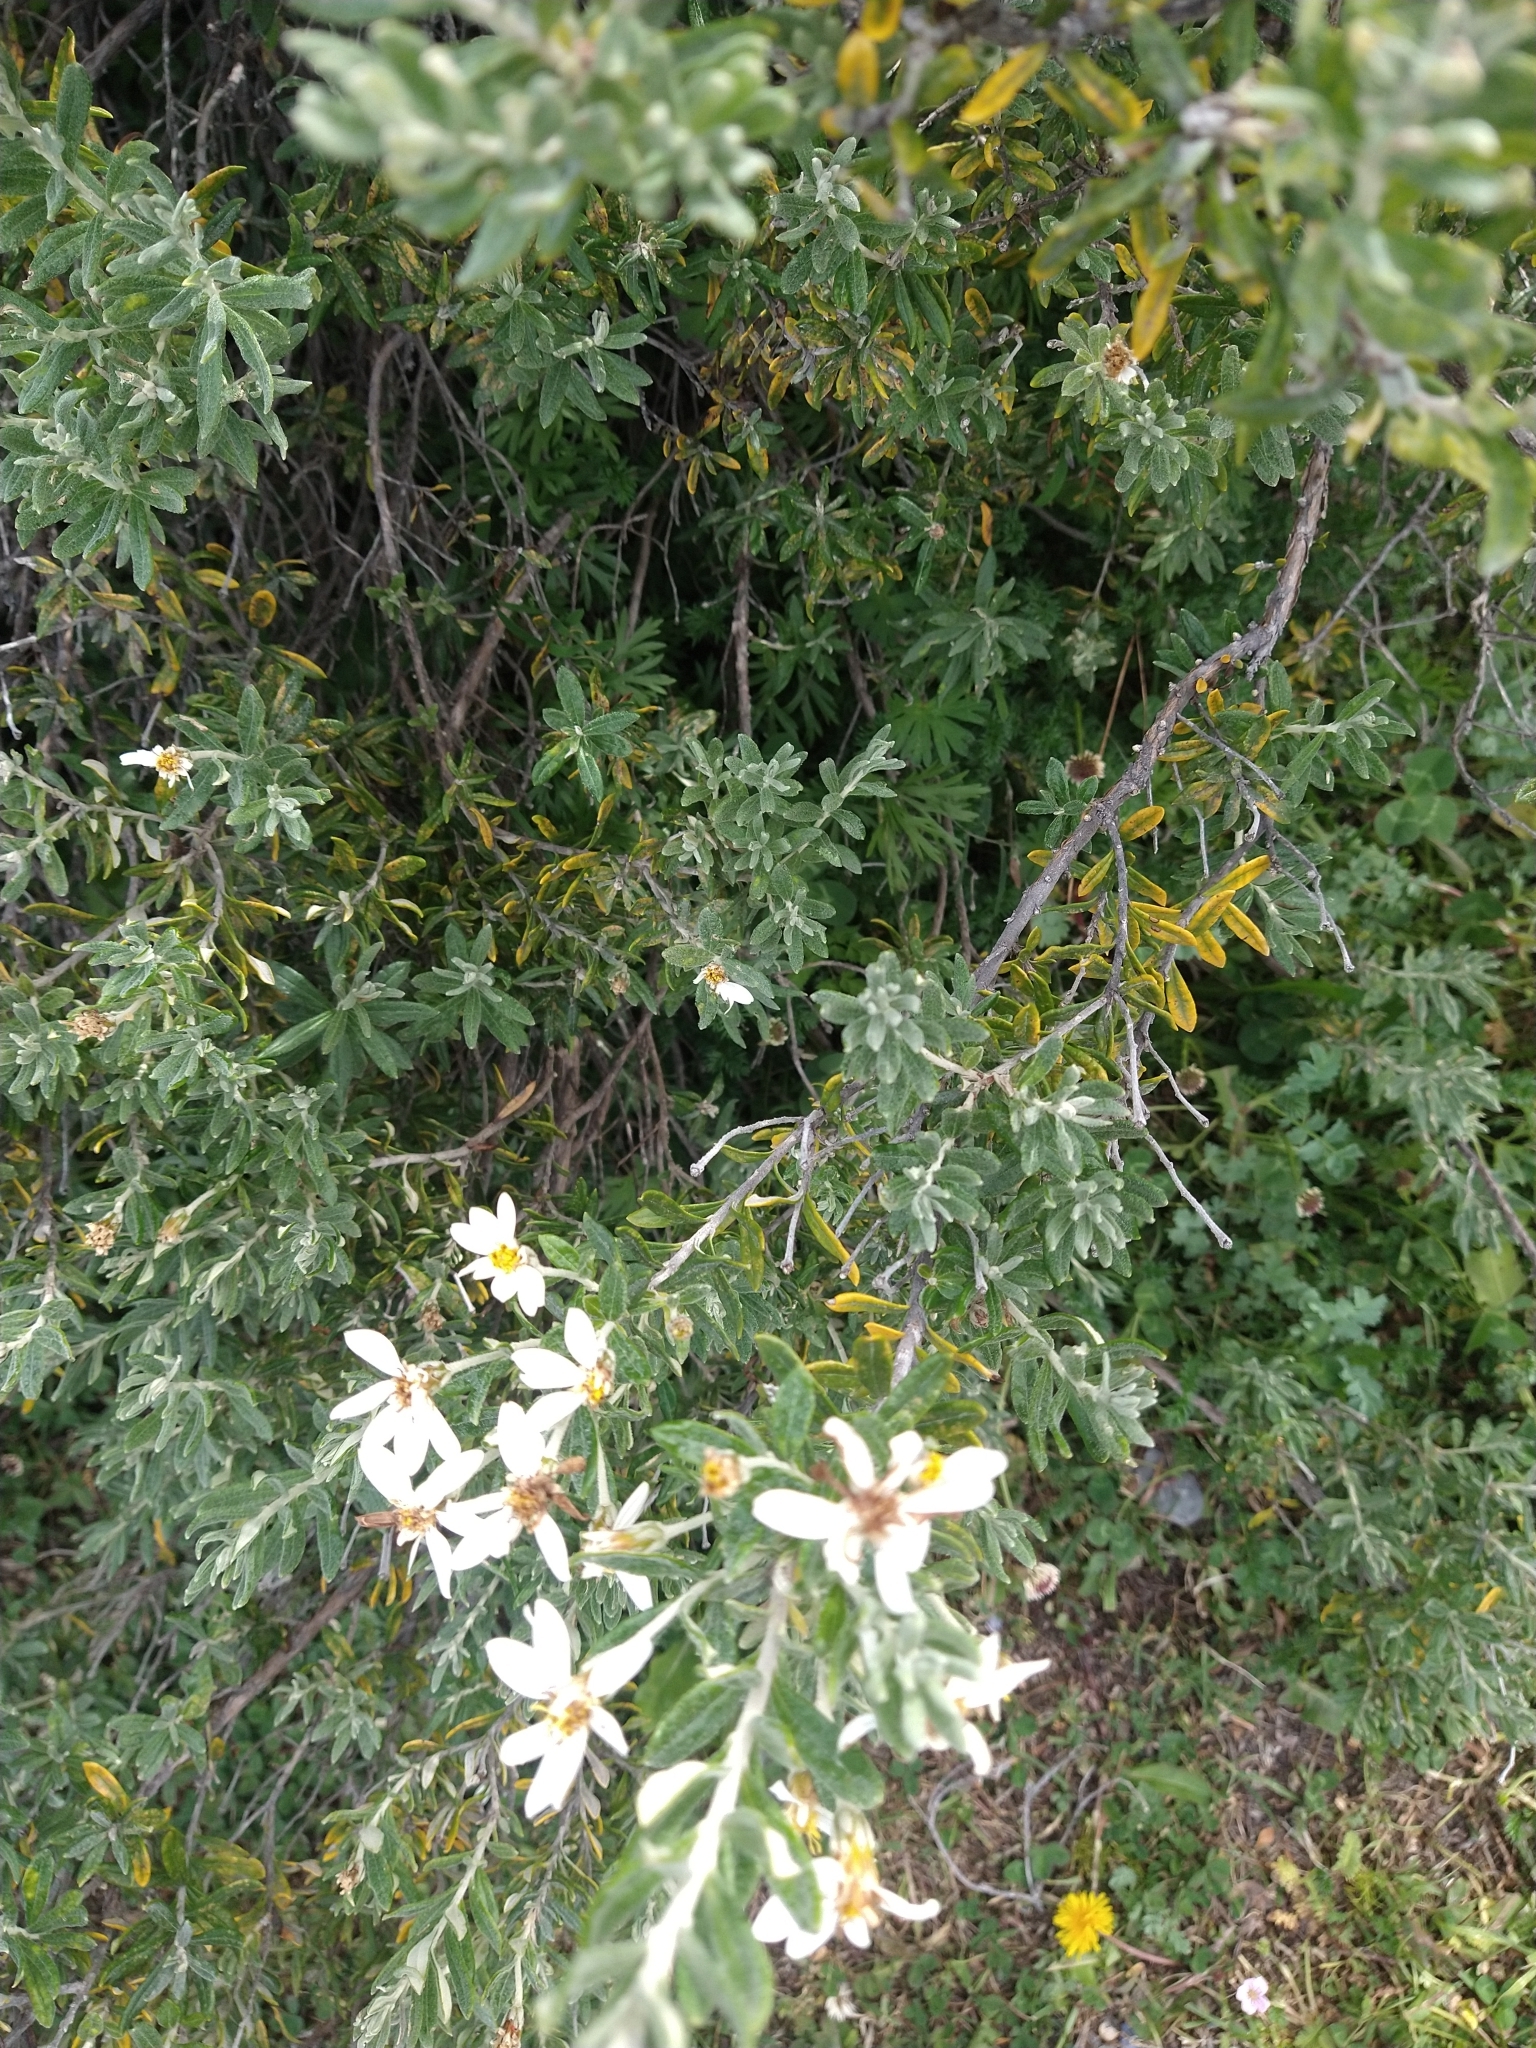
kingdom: Plantae
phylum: Tracheophyta
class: Magnoliopsida
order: Asterales
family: Asteraceae
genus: Chiliotrichum
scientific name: Chiliotrichum diffusum
